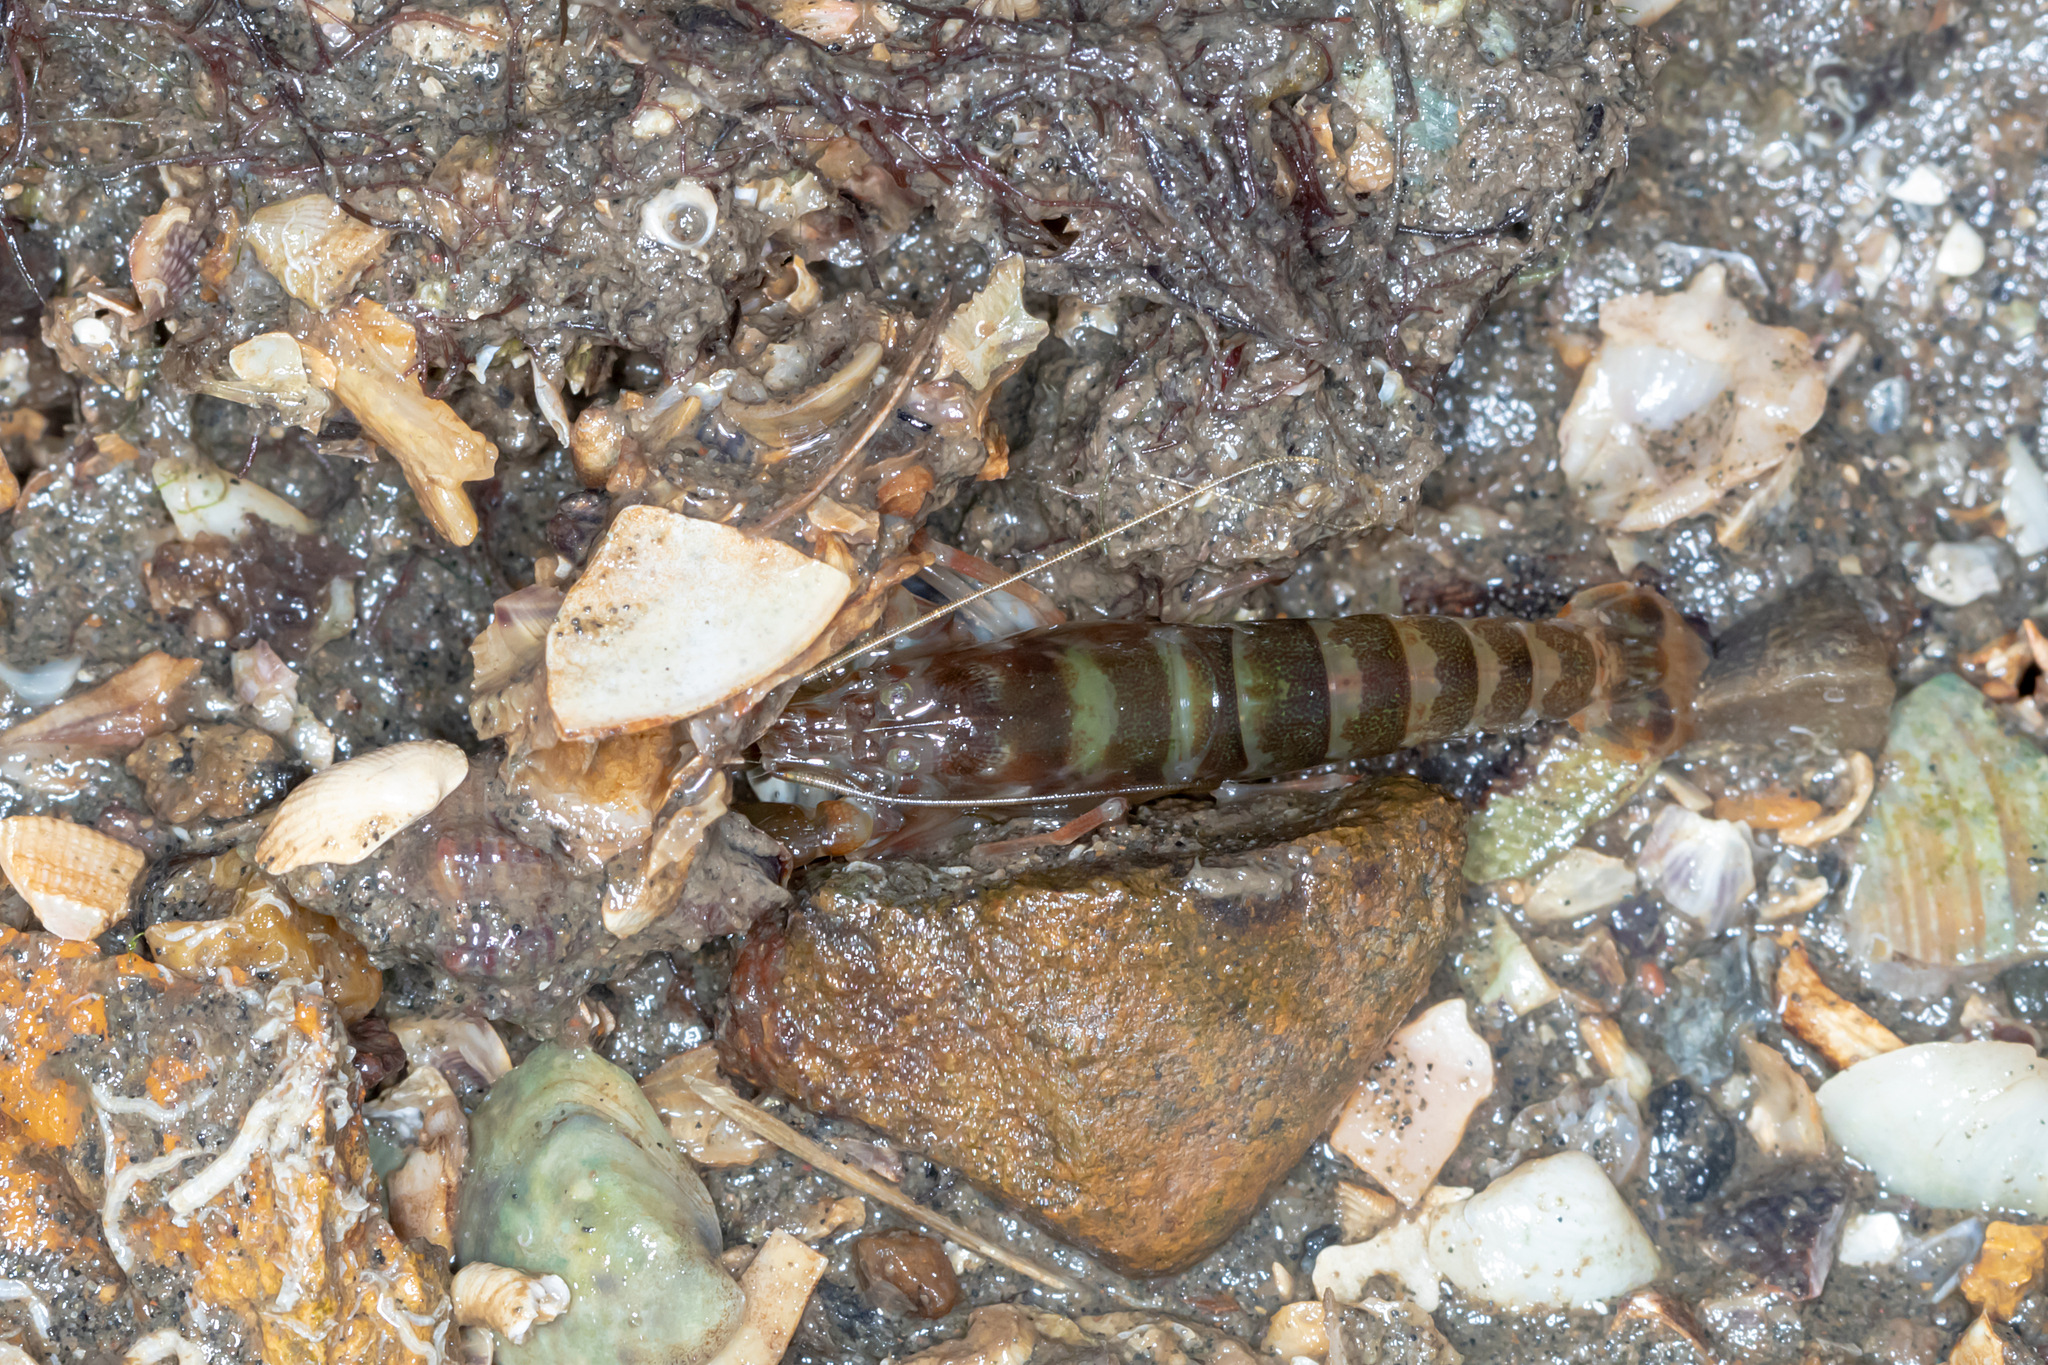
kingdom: Animalia
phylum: Arthropoda
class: Malacostraca
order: Decapoda
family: Alpheidae
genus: Alpheus
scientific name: Alpheus richardsoni
